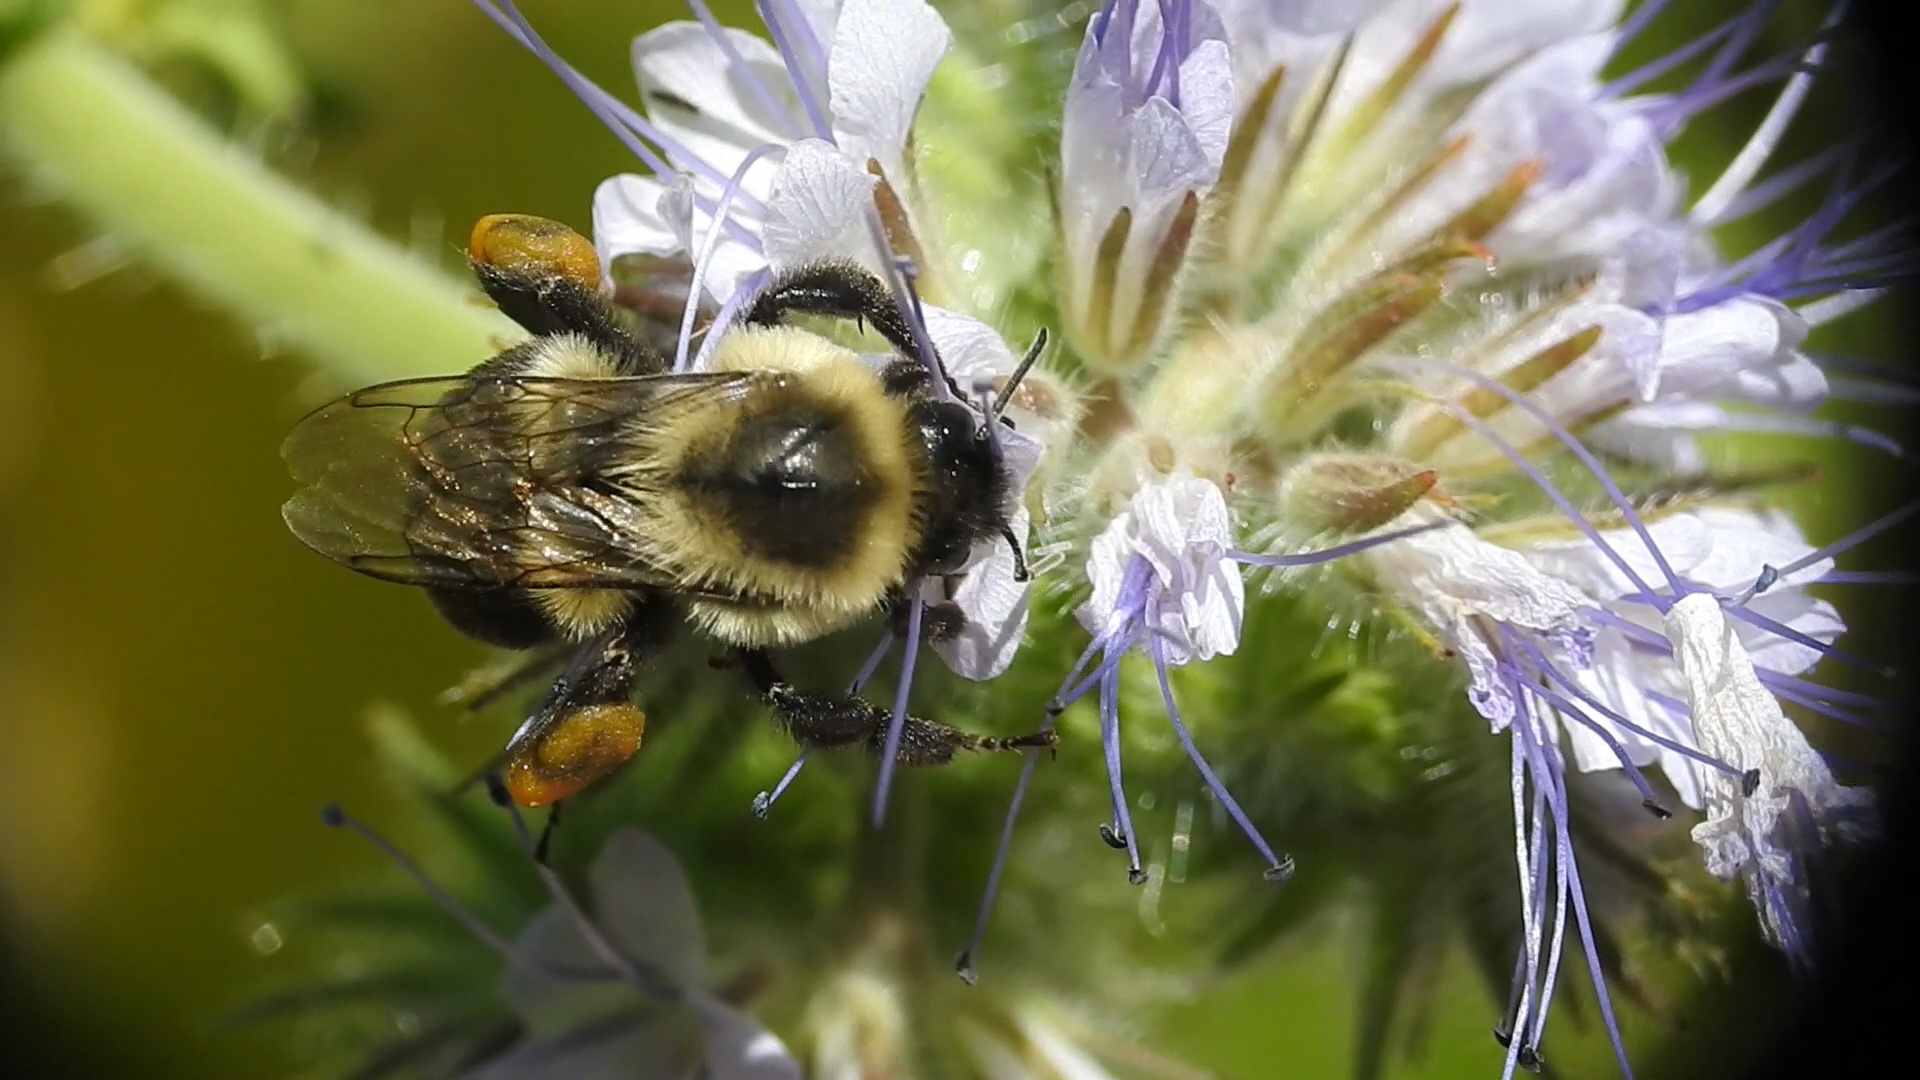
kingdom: Animalia
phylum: Arthropoda
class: Insecta
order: Hymenoptera
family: Apidae
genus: Bombus
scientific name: Bombus impatiens
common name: Common eastern bumble bee
